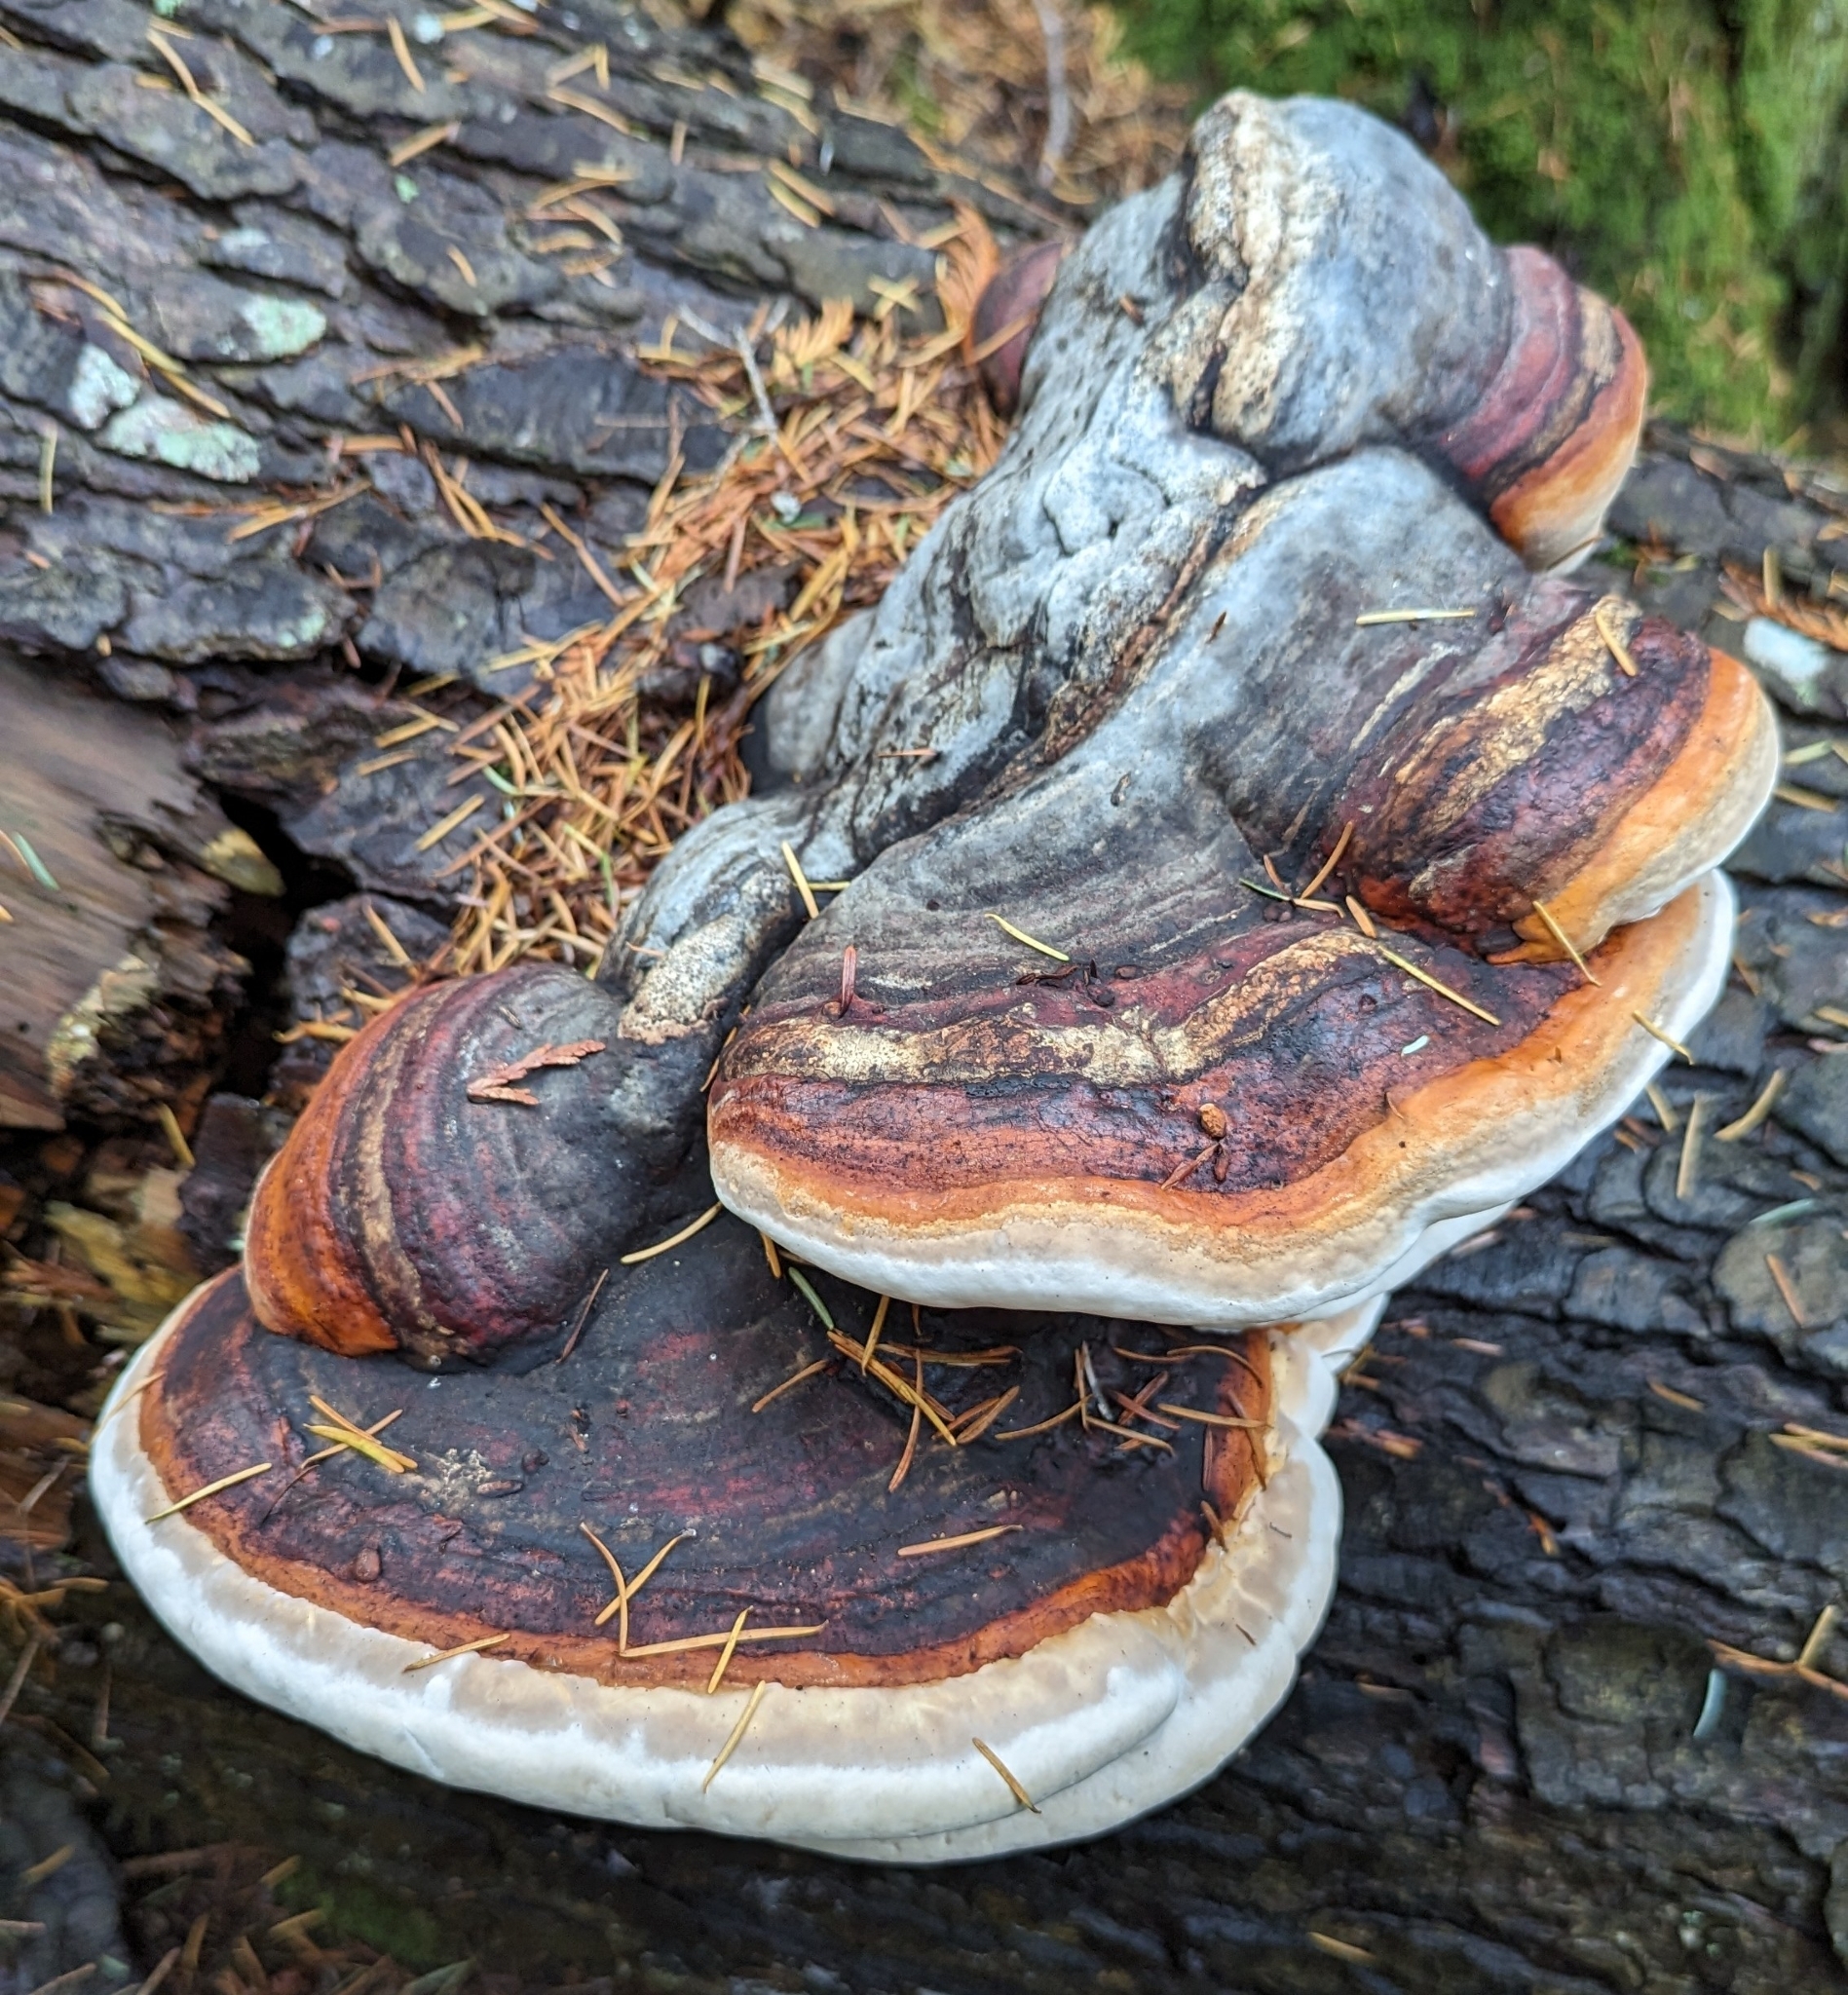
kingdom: Fungi
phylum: Basidiomycota
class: Agaricomycetes
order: Polyporales
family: Fomitopsidaceae
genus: Fomitopsis
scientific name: Fomitopsis mounceae
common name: Northern red belt
